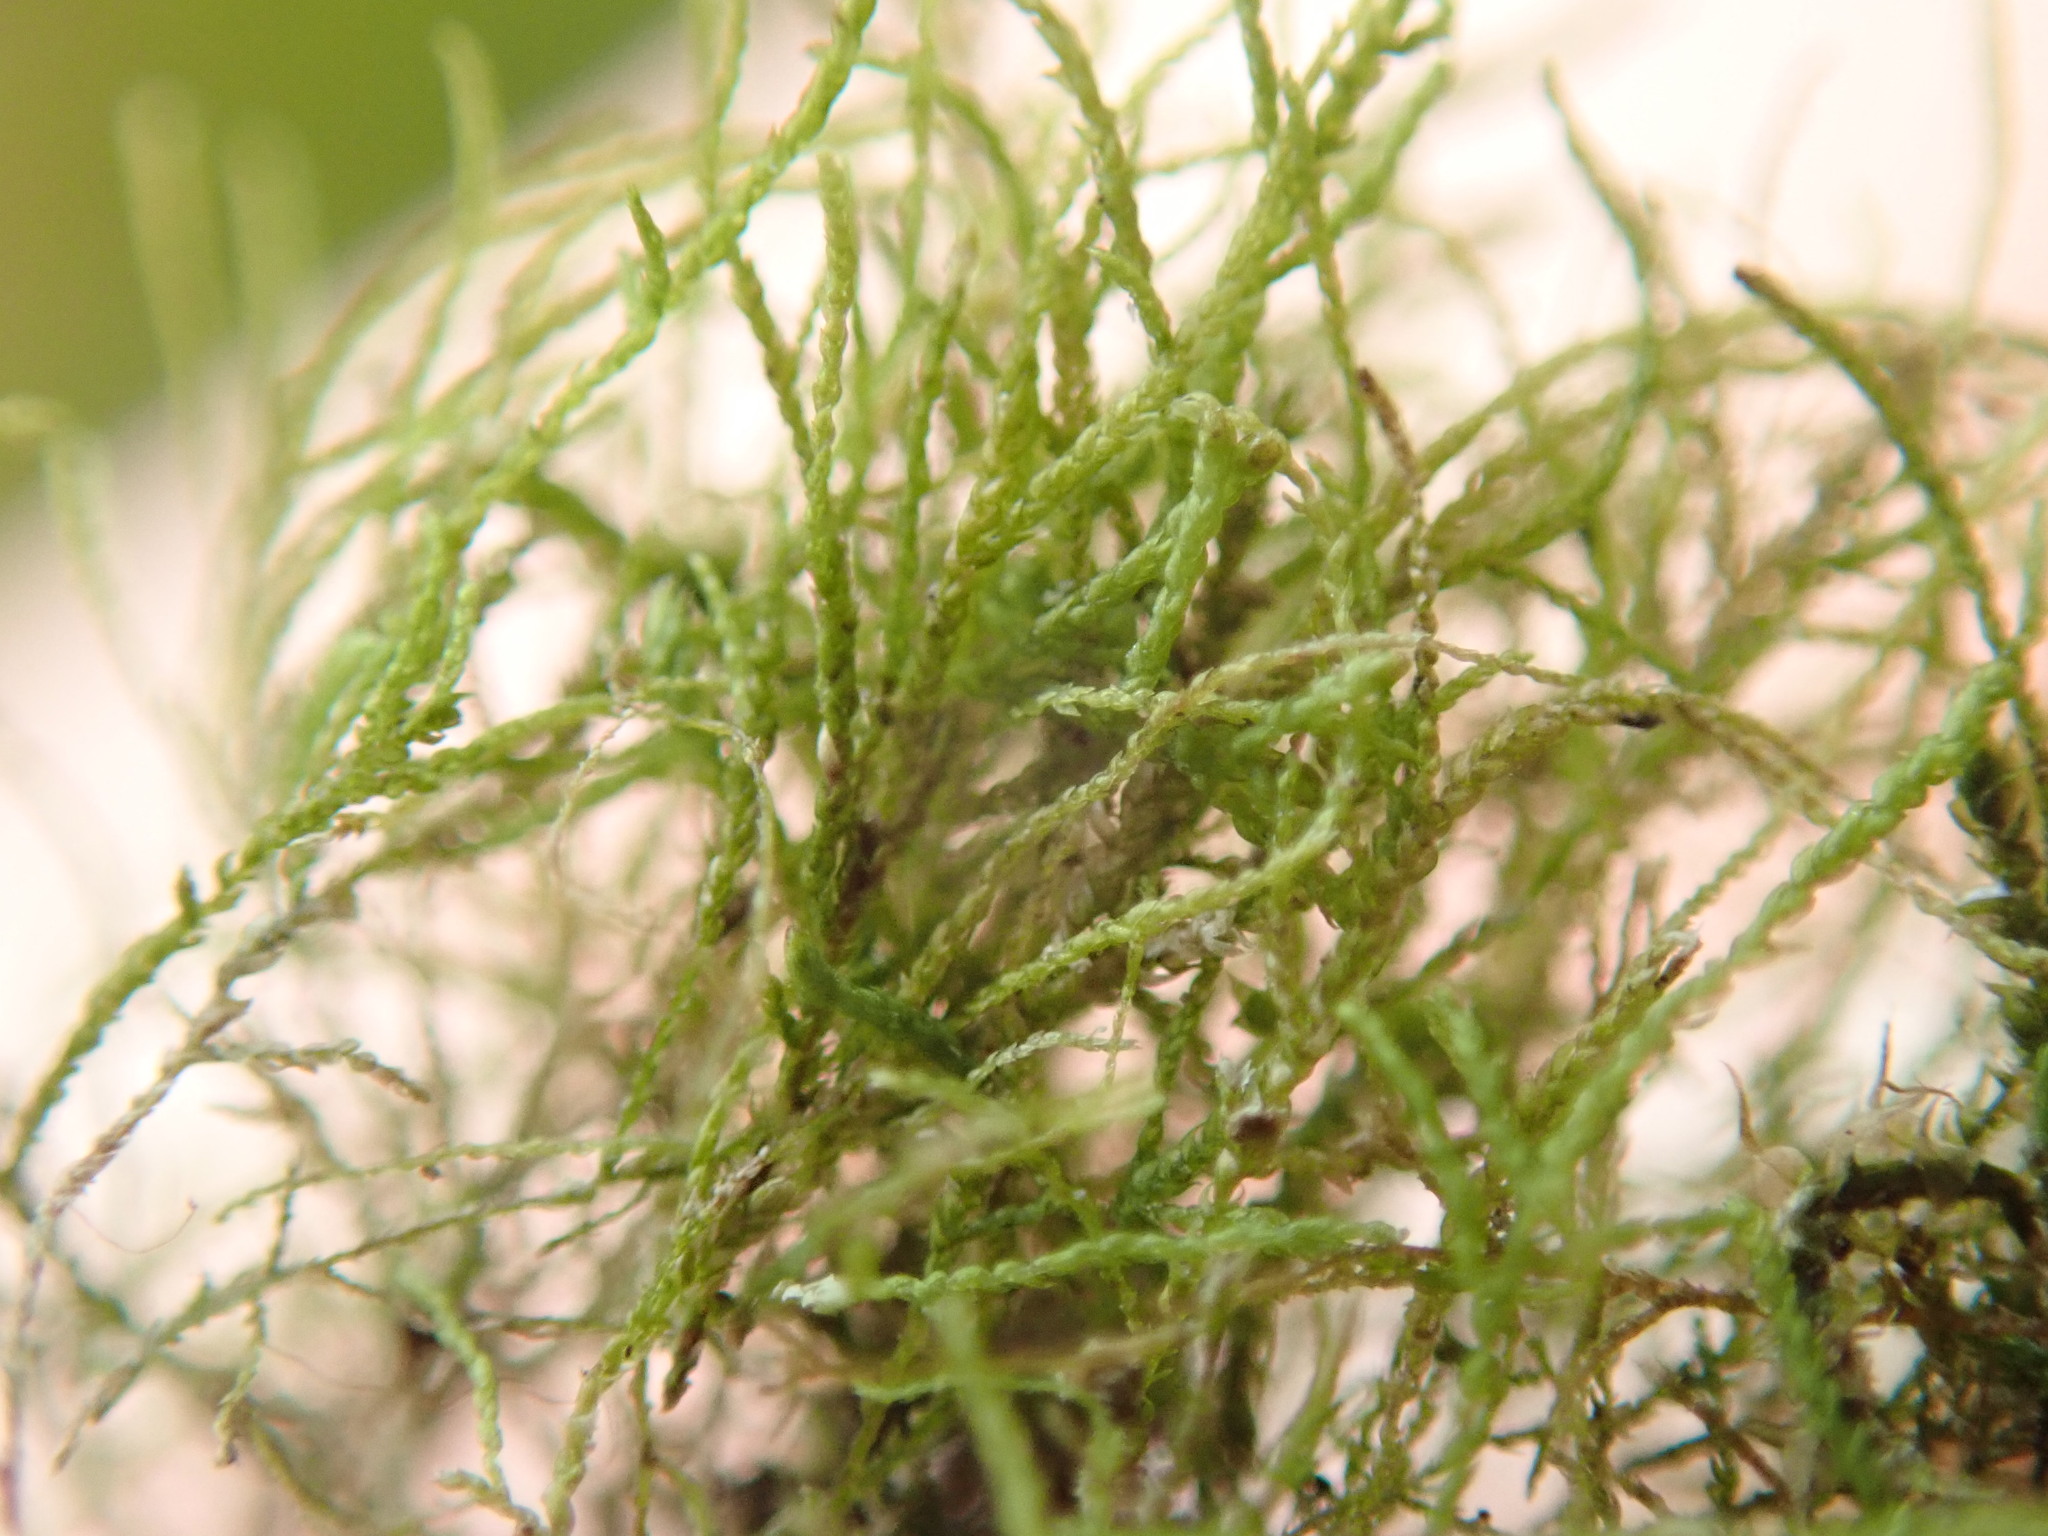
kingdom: Plantae
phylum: Bryophyta
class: Bryopsida
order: Hypnales
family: Lembophyllaceae
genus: Heterocladium
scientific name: Heterocladium macounii
